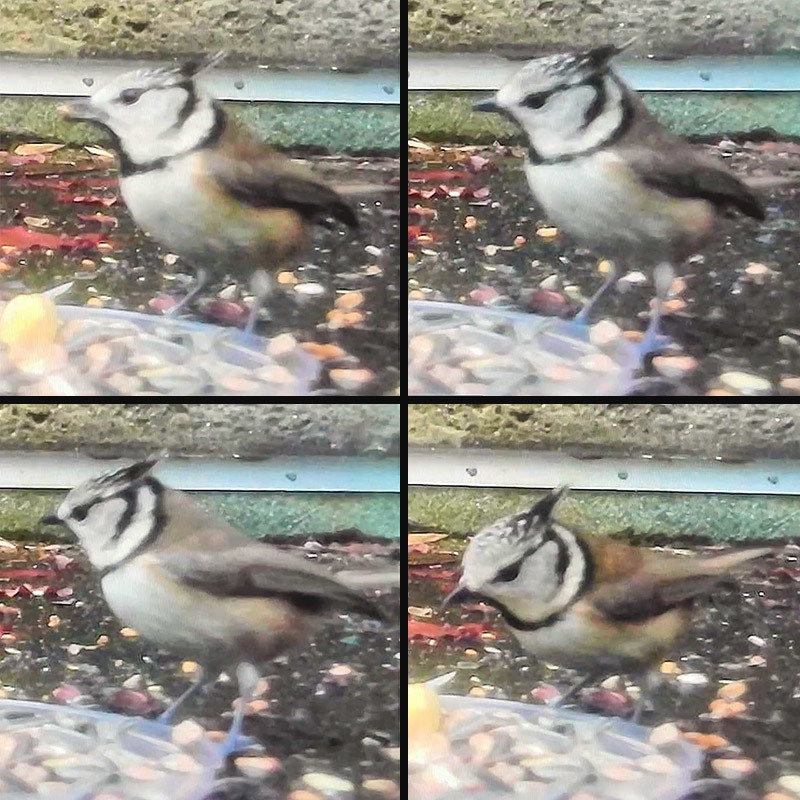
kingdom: Animalia
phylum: Chordata
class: Aves
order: Passeriformes
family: Paridae
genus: Lophophanes
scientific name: Lophophanes cristatus
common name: European crested tit
